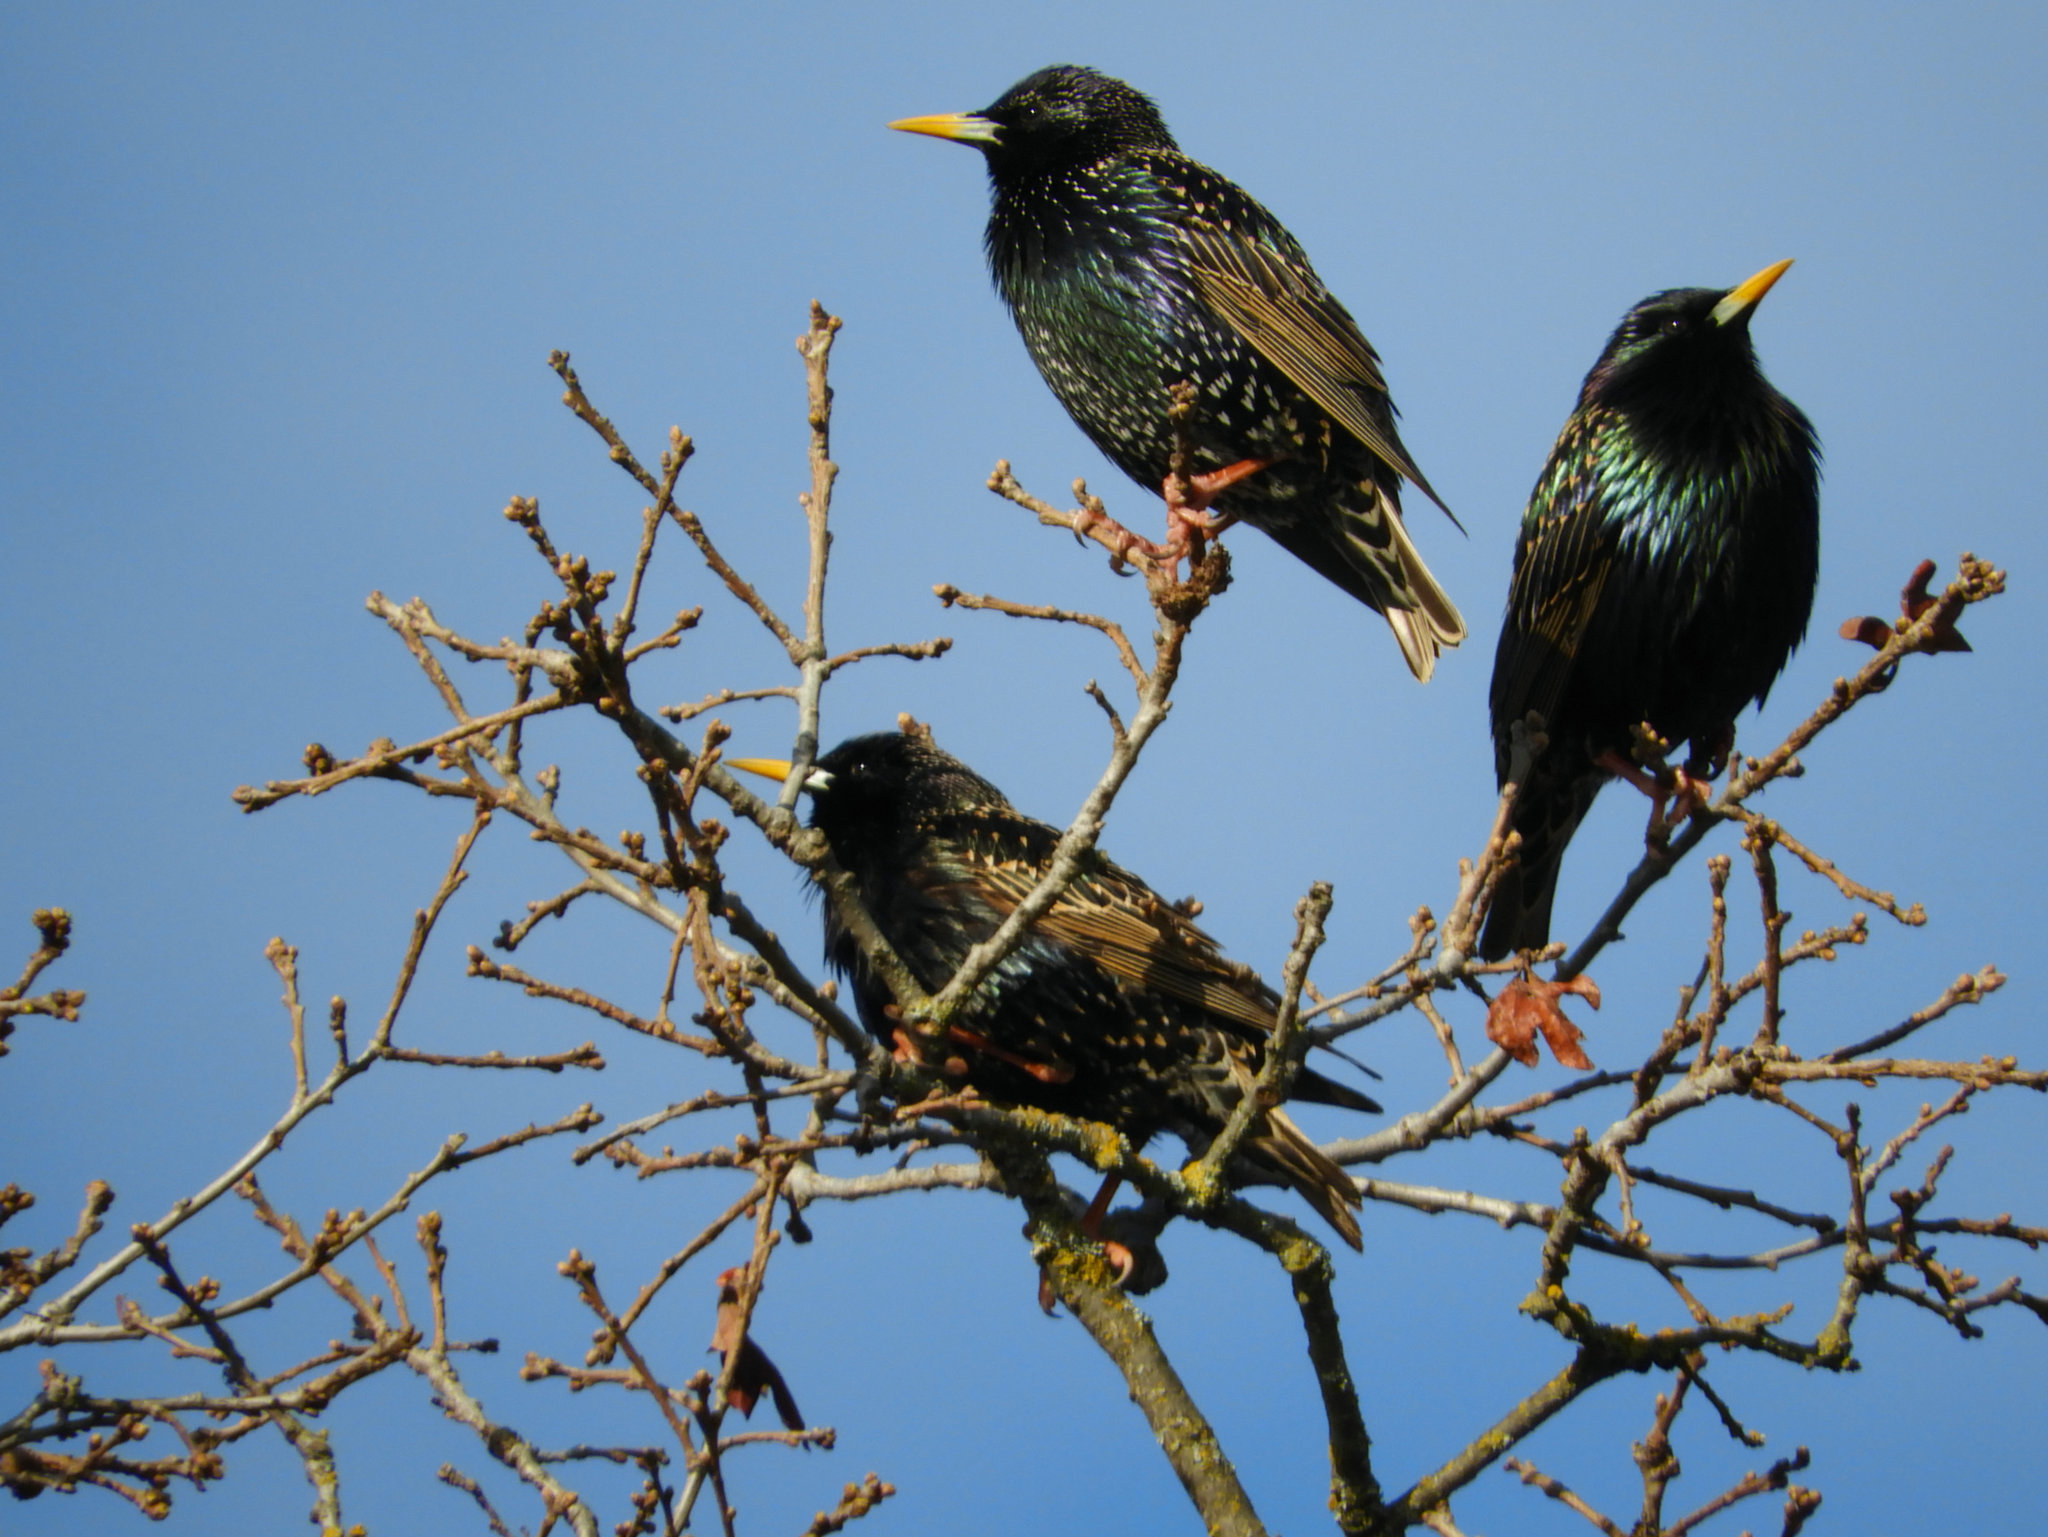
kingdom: Animalia
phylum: Chordata
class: Aves
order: Passeriformes
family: Sturnidae
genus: Sturnus
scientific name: Sturnus vulgaris
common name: Common starling
